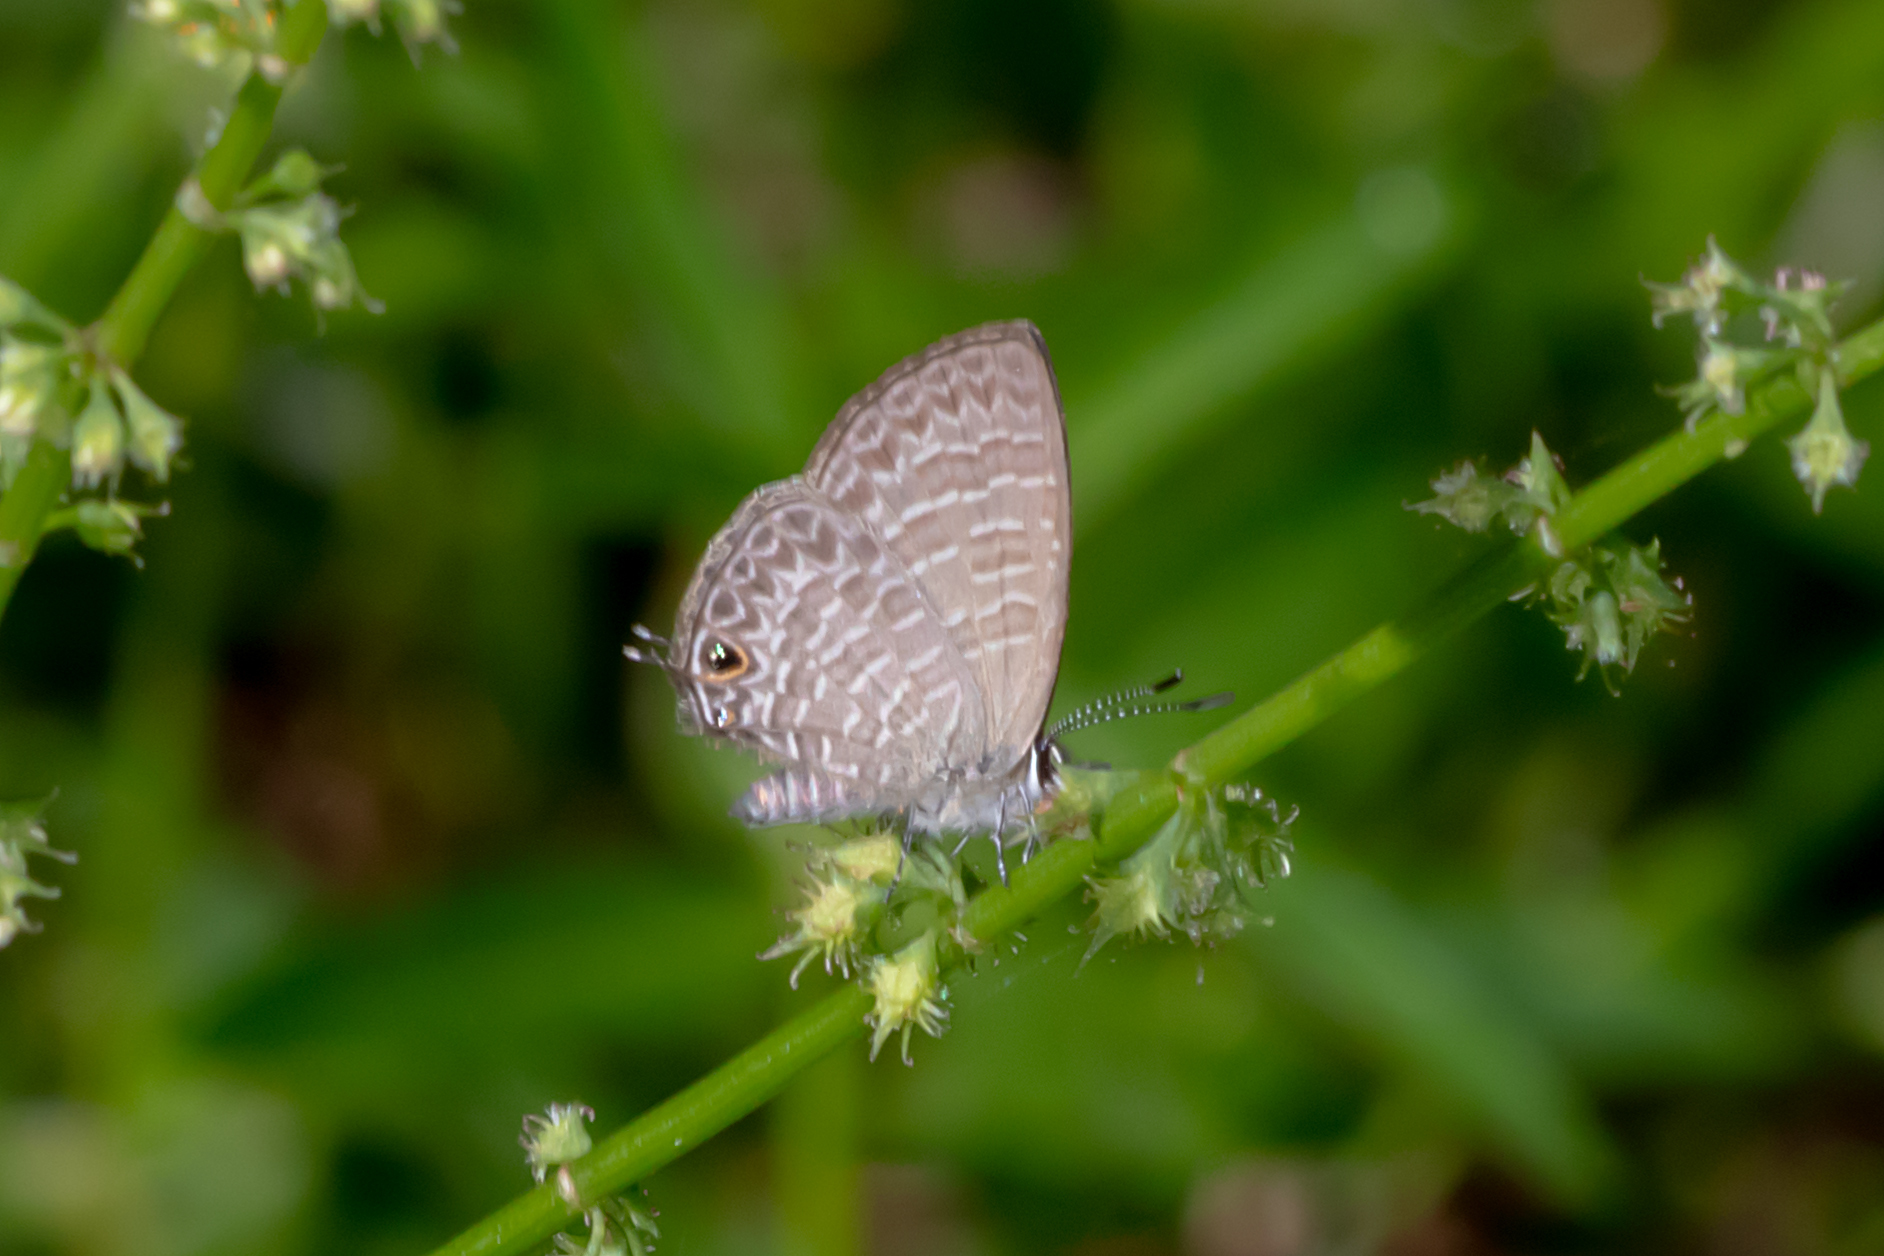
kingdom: Animalia
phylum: Arthropoda
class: Insecta
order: Lepidoptera
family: Lycaenidae
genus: Nacaduba
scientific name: Nacaduba berenice
